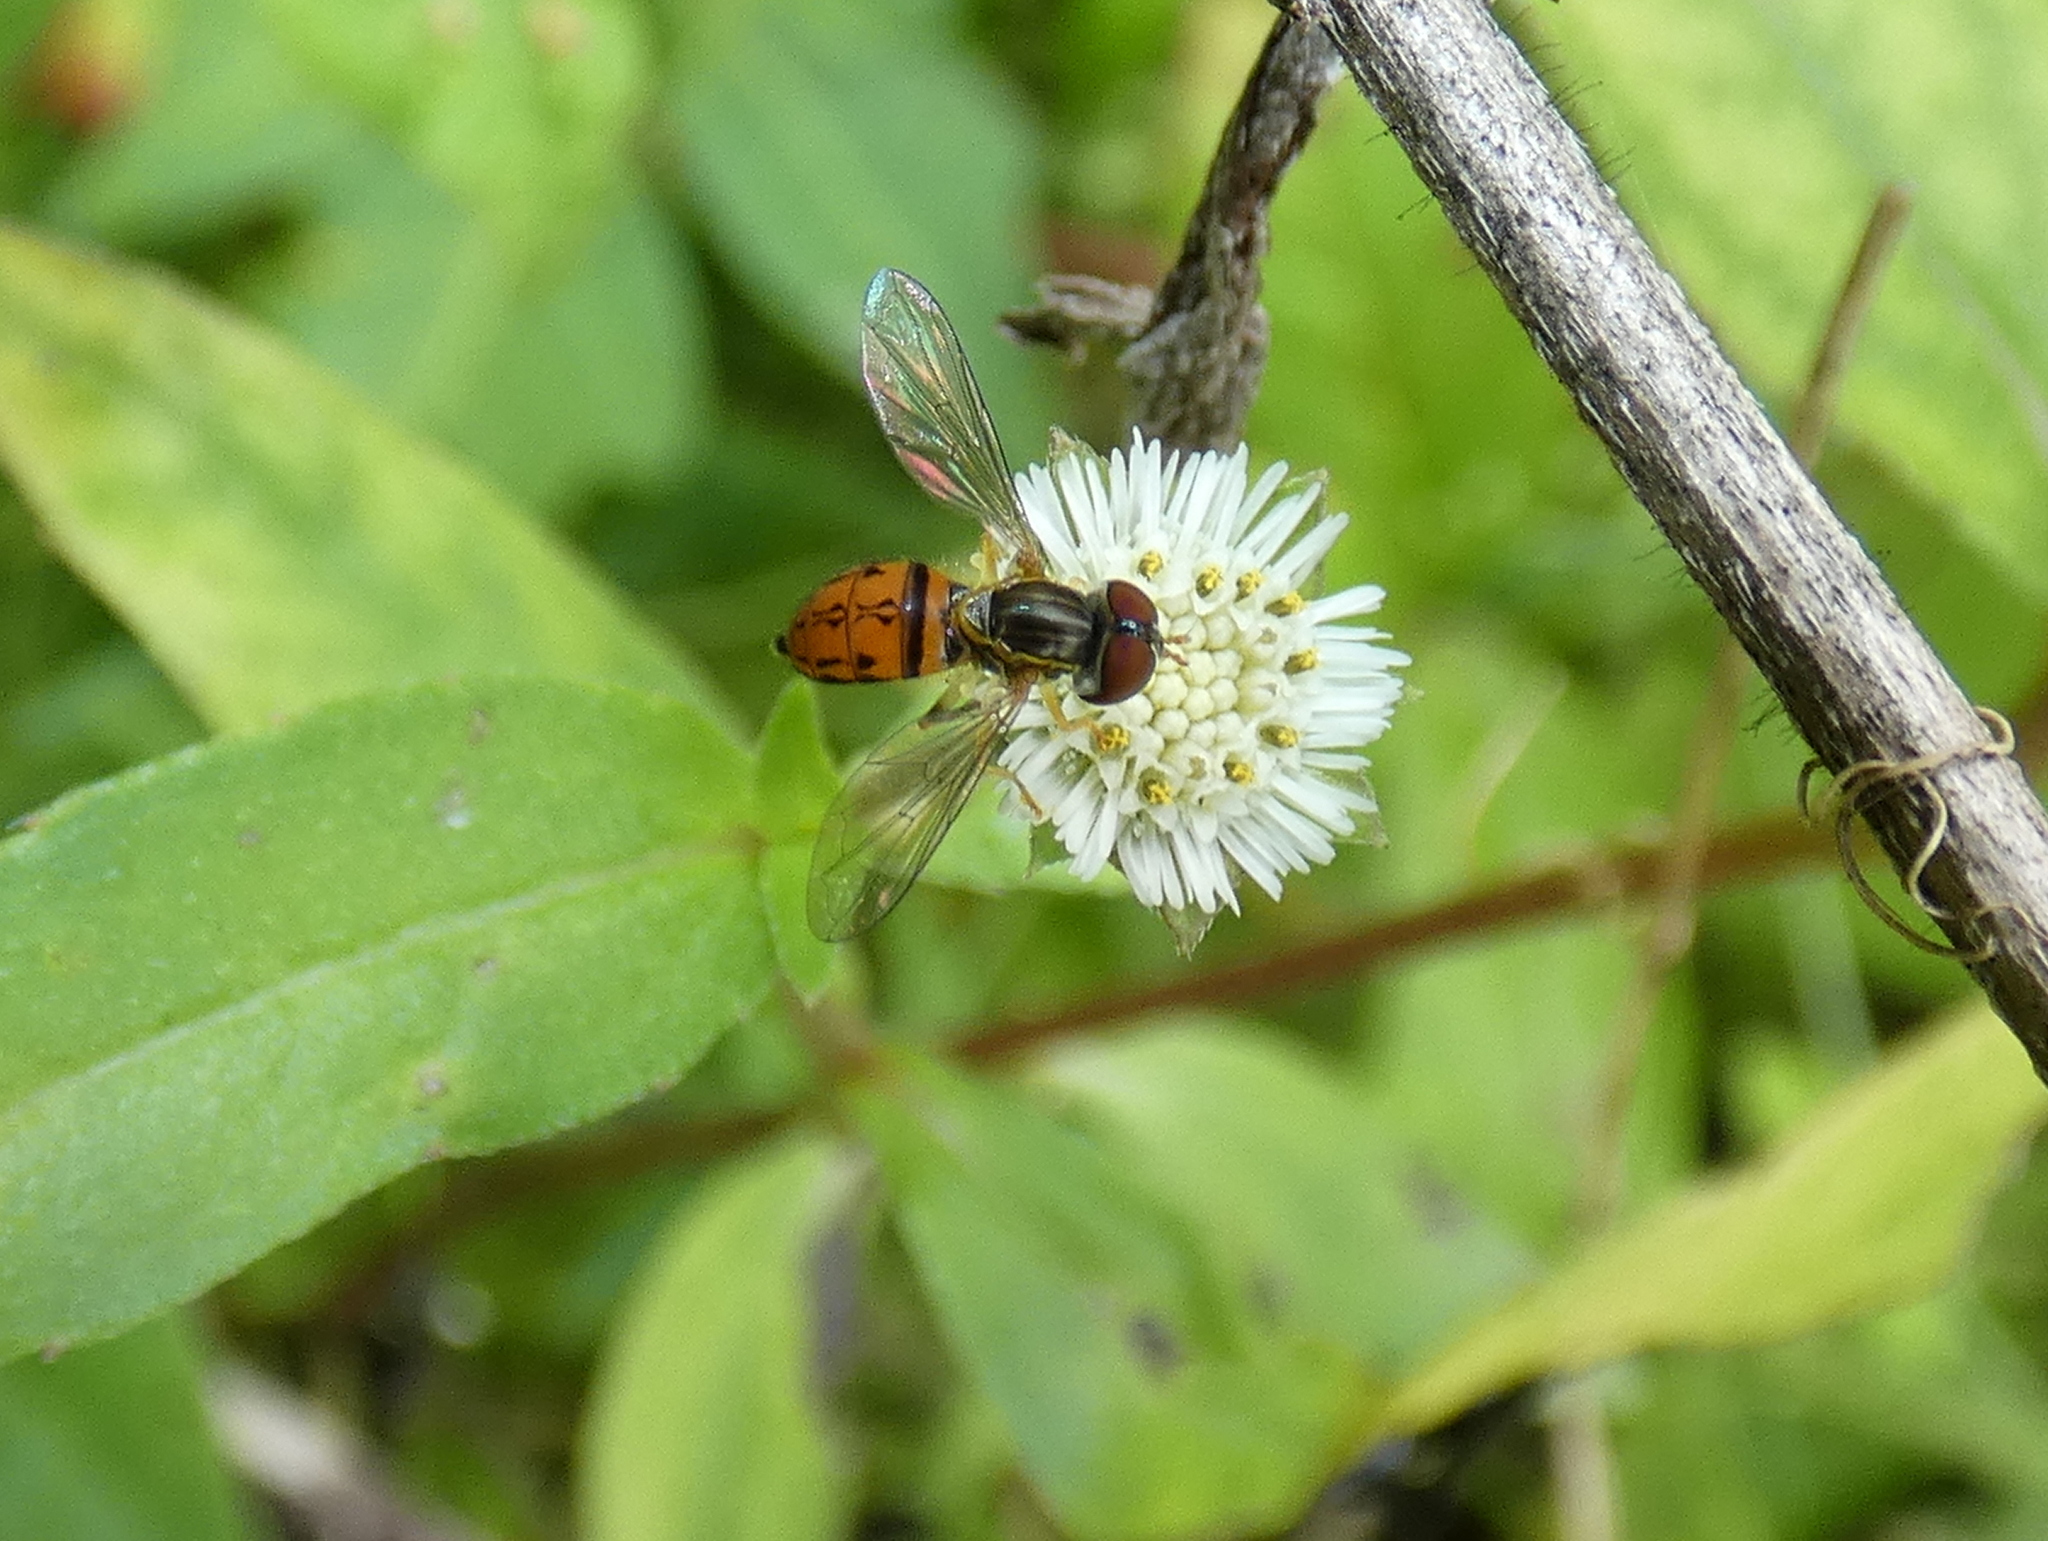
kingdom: Animalia
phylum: Arthropoda
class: Insecta
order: Diptera
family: Syrphidae
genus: Toxomerus
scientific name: Toxomerus boscii
